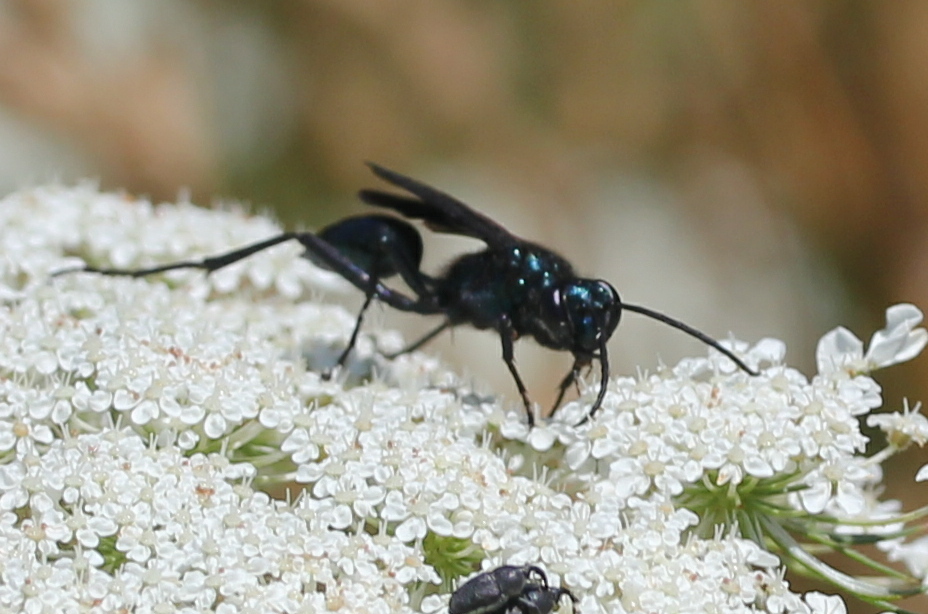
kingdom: Animalia
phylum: Arthropoda
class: Insecta
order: Hymenoptera
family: Sphecidae
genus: Chalybion
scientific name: Chalybion californicum
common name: Mud dauber
